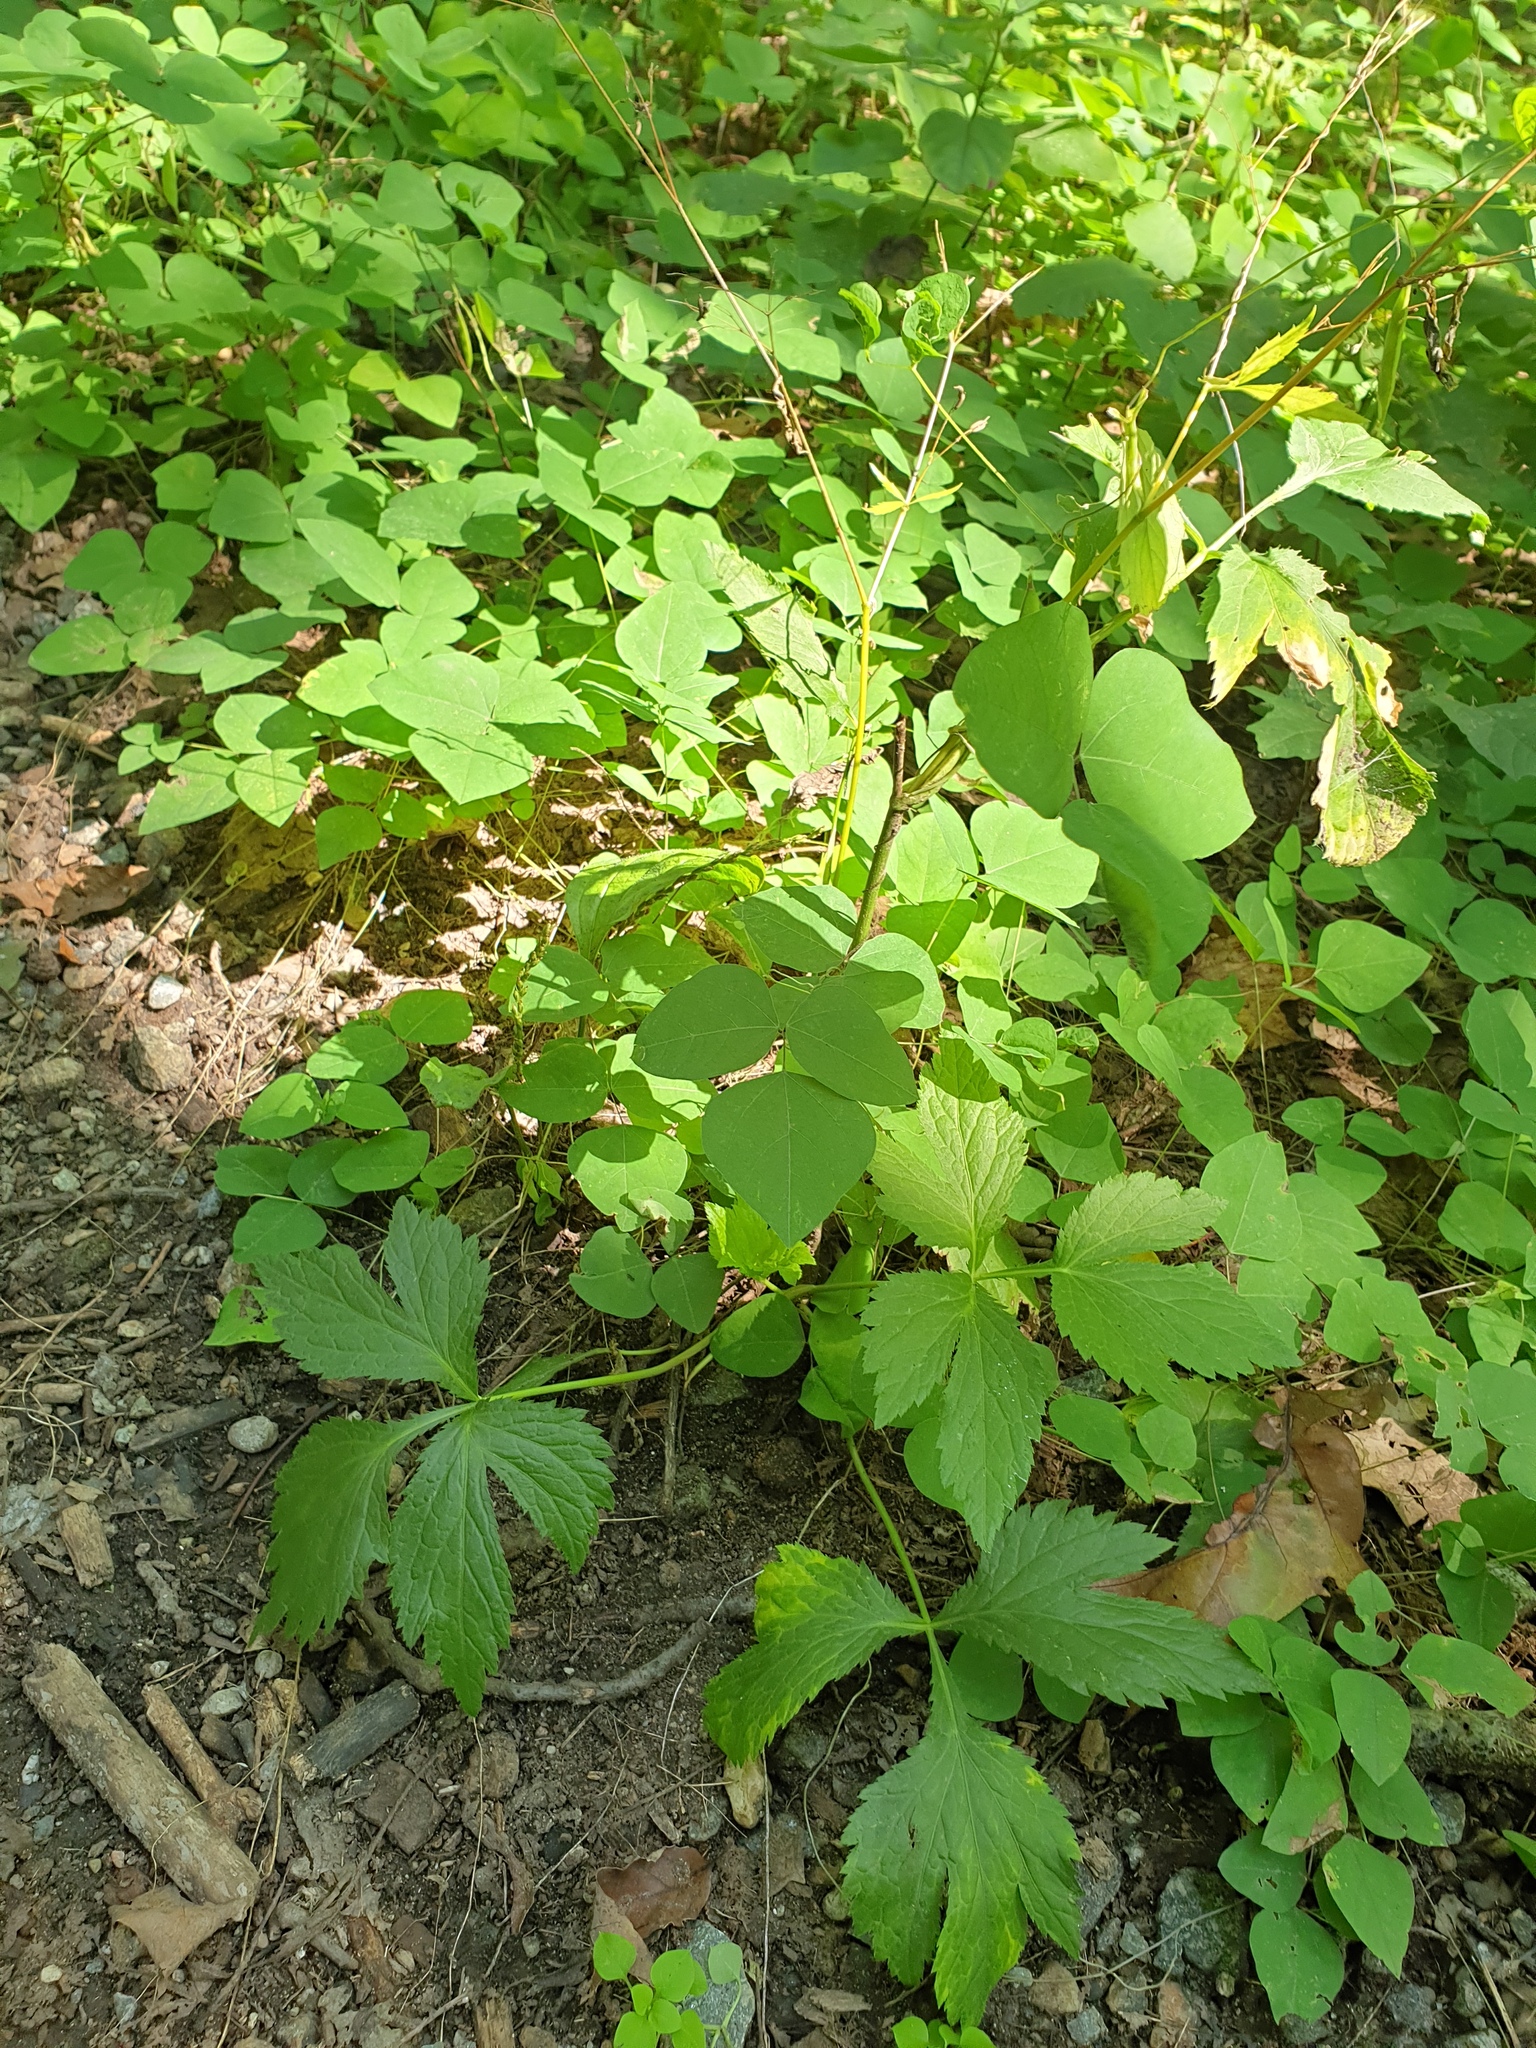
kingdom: Plantae
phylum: Tracheophyta
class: Magnoliopsida
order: Apiales
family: Apiaceae
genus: Cryptotaenia
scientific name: Cryptotaenia canadensis
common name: Honewort
